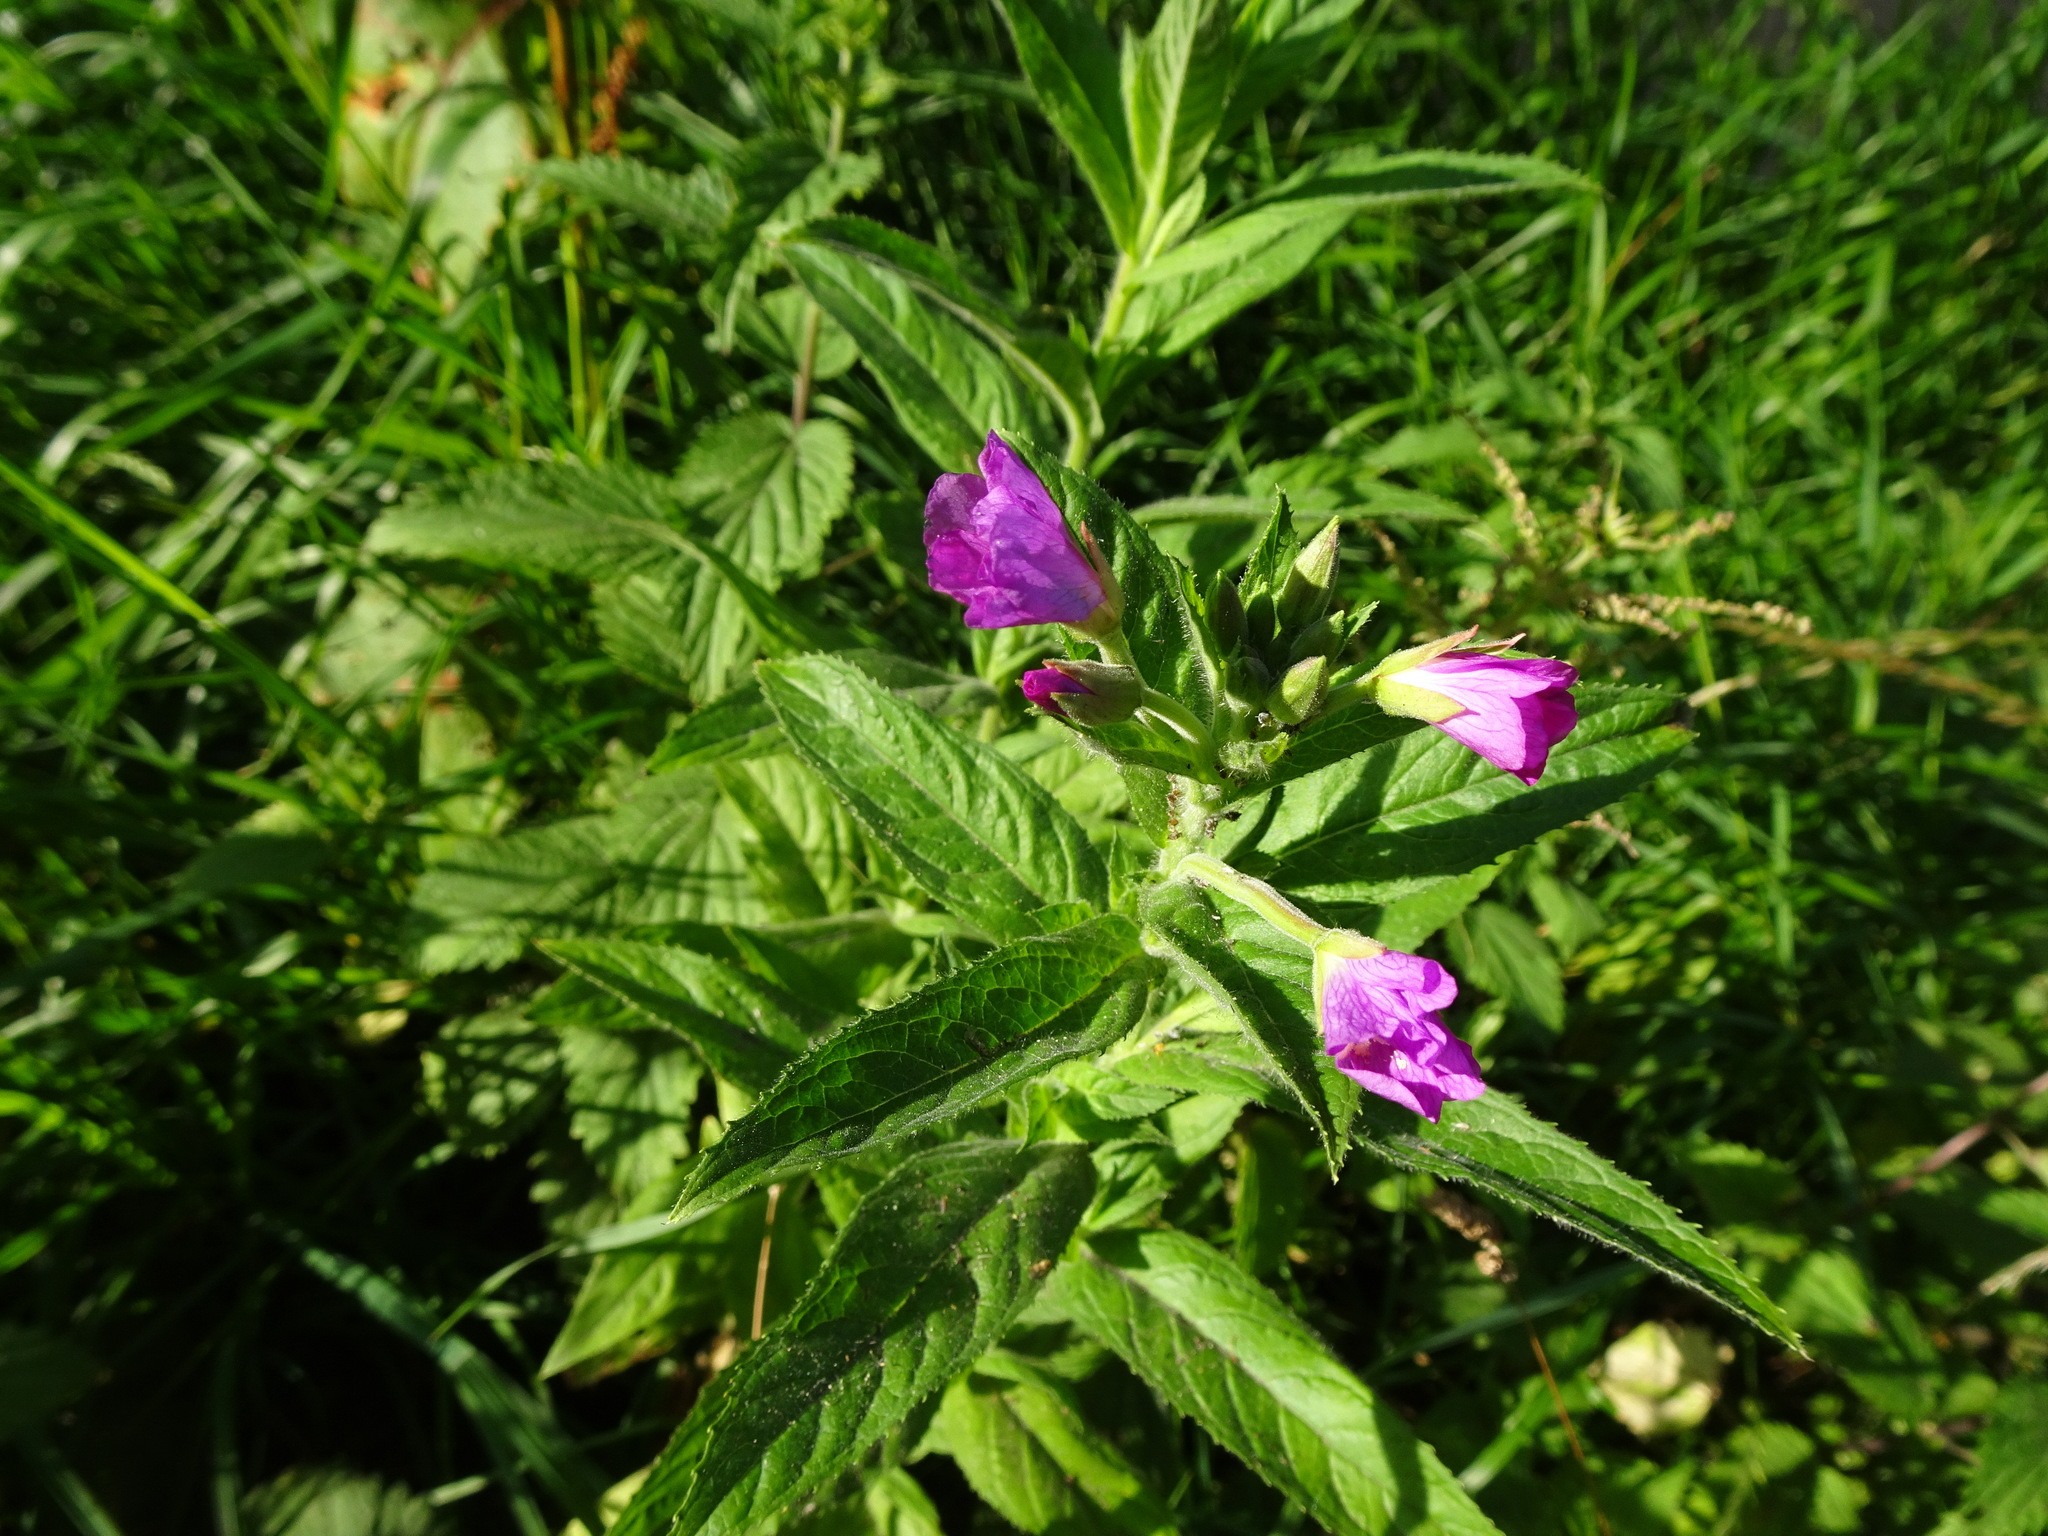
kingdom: Plantae
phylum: Tracheophyta
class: Magnoliopsida
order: Myrtales
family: Onagraceae
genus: Epilobium
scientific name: Epilobium hirsutum
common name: Great willowherb
